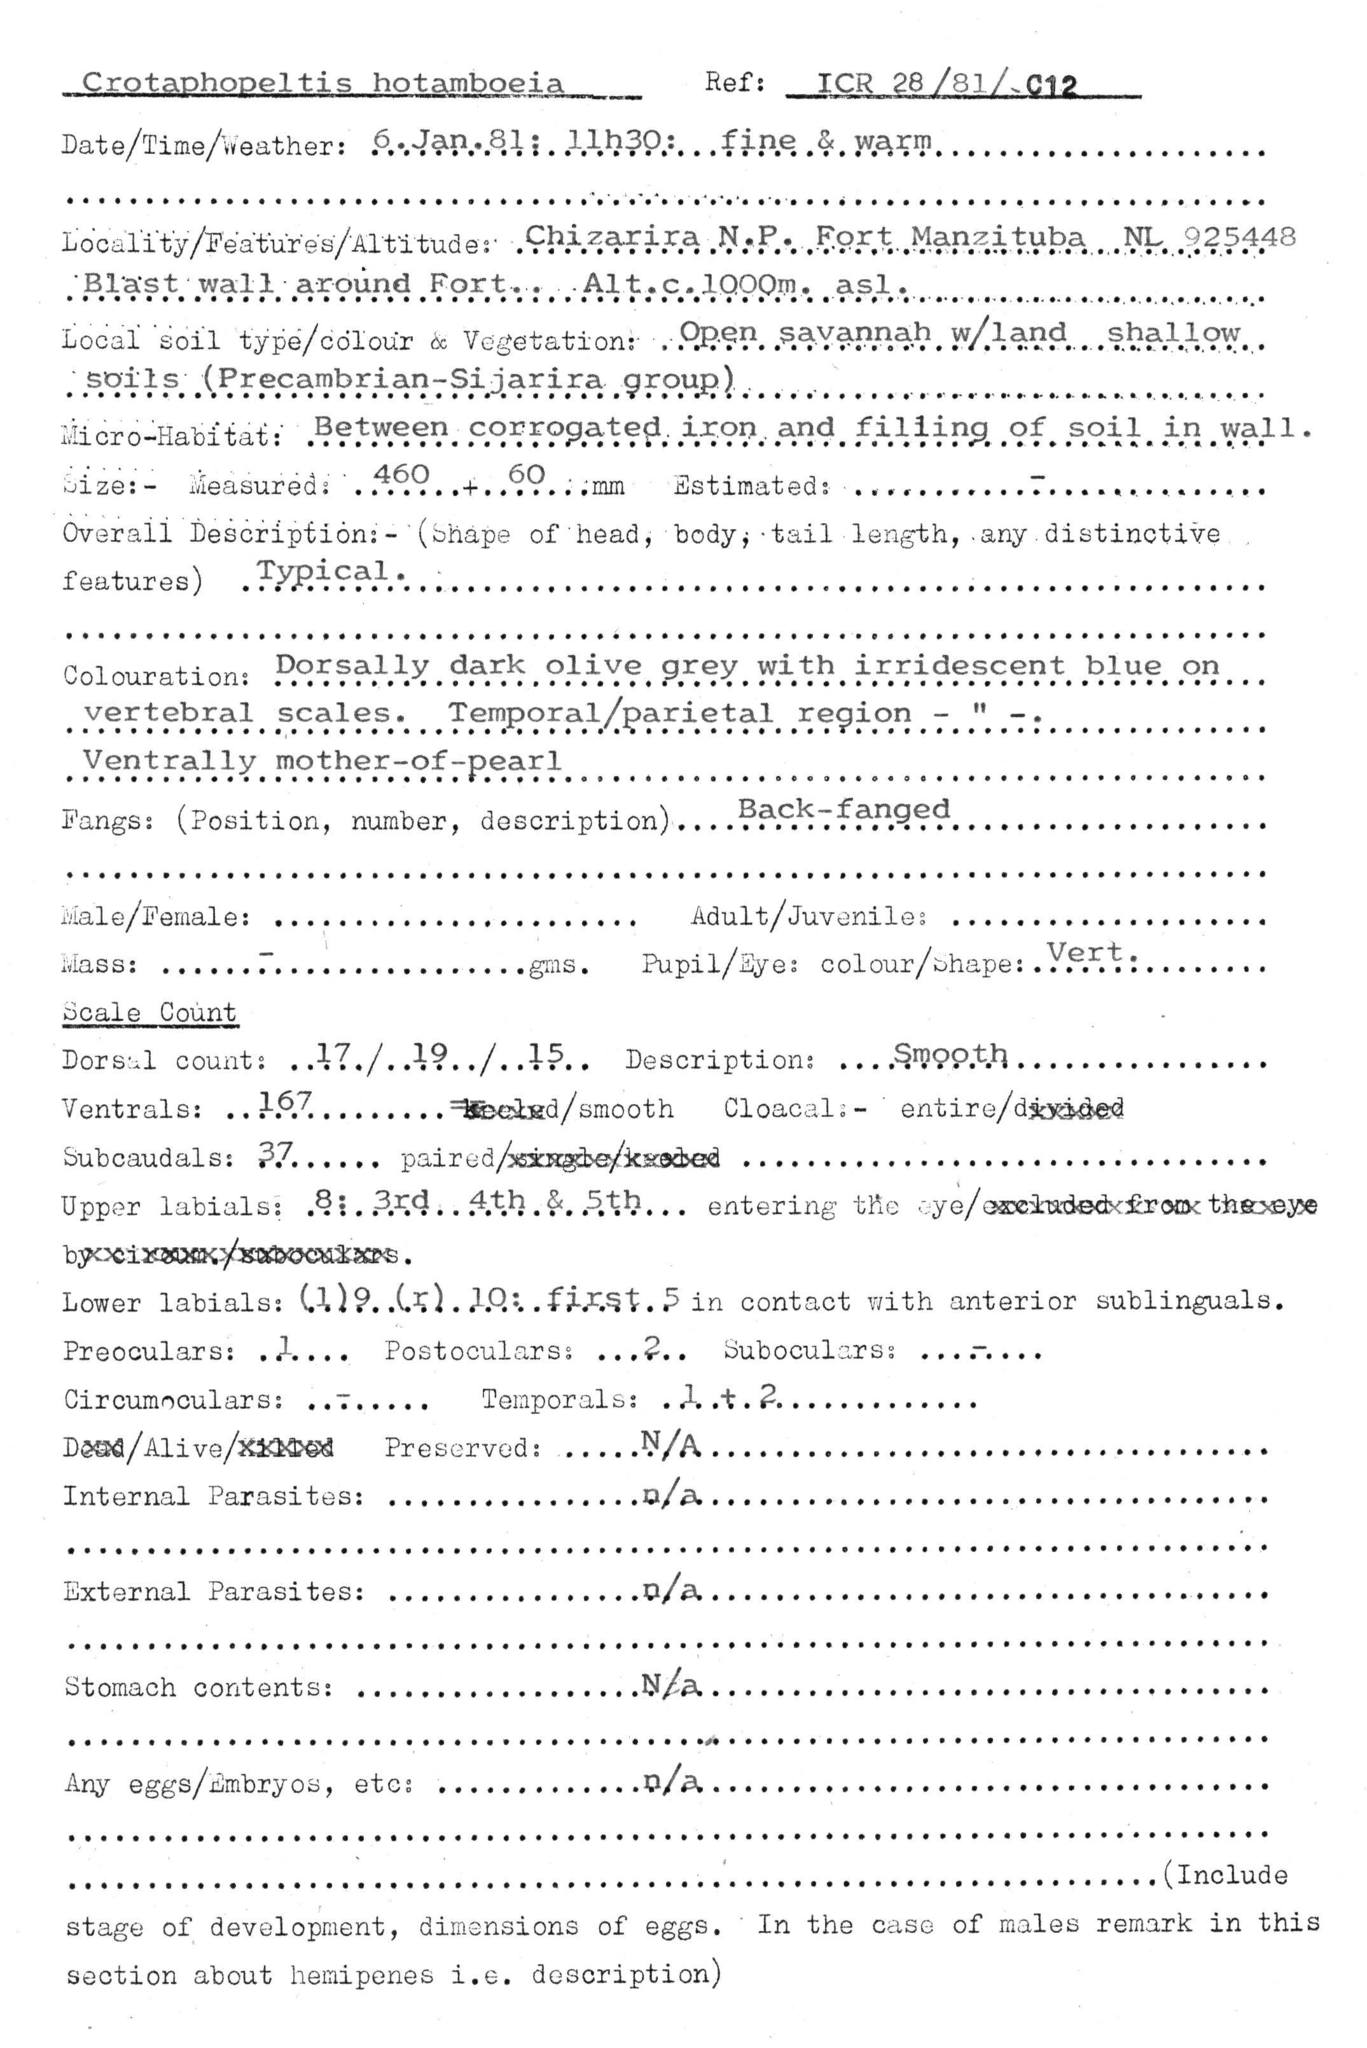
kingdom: Animalia
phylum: Chordata
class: Squamata
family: Colubridae
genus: Crotaphopeltis
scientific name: Crotaphopeltis hotamboeia
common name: Red-lipped snake
